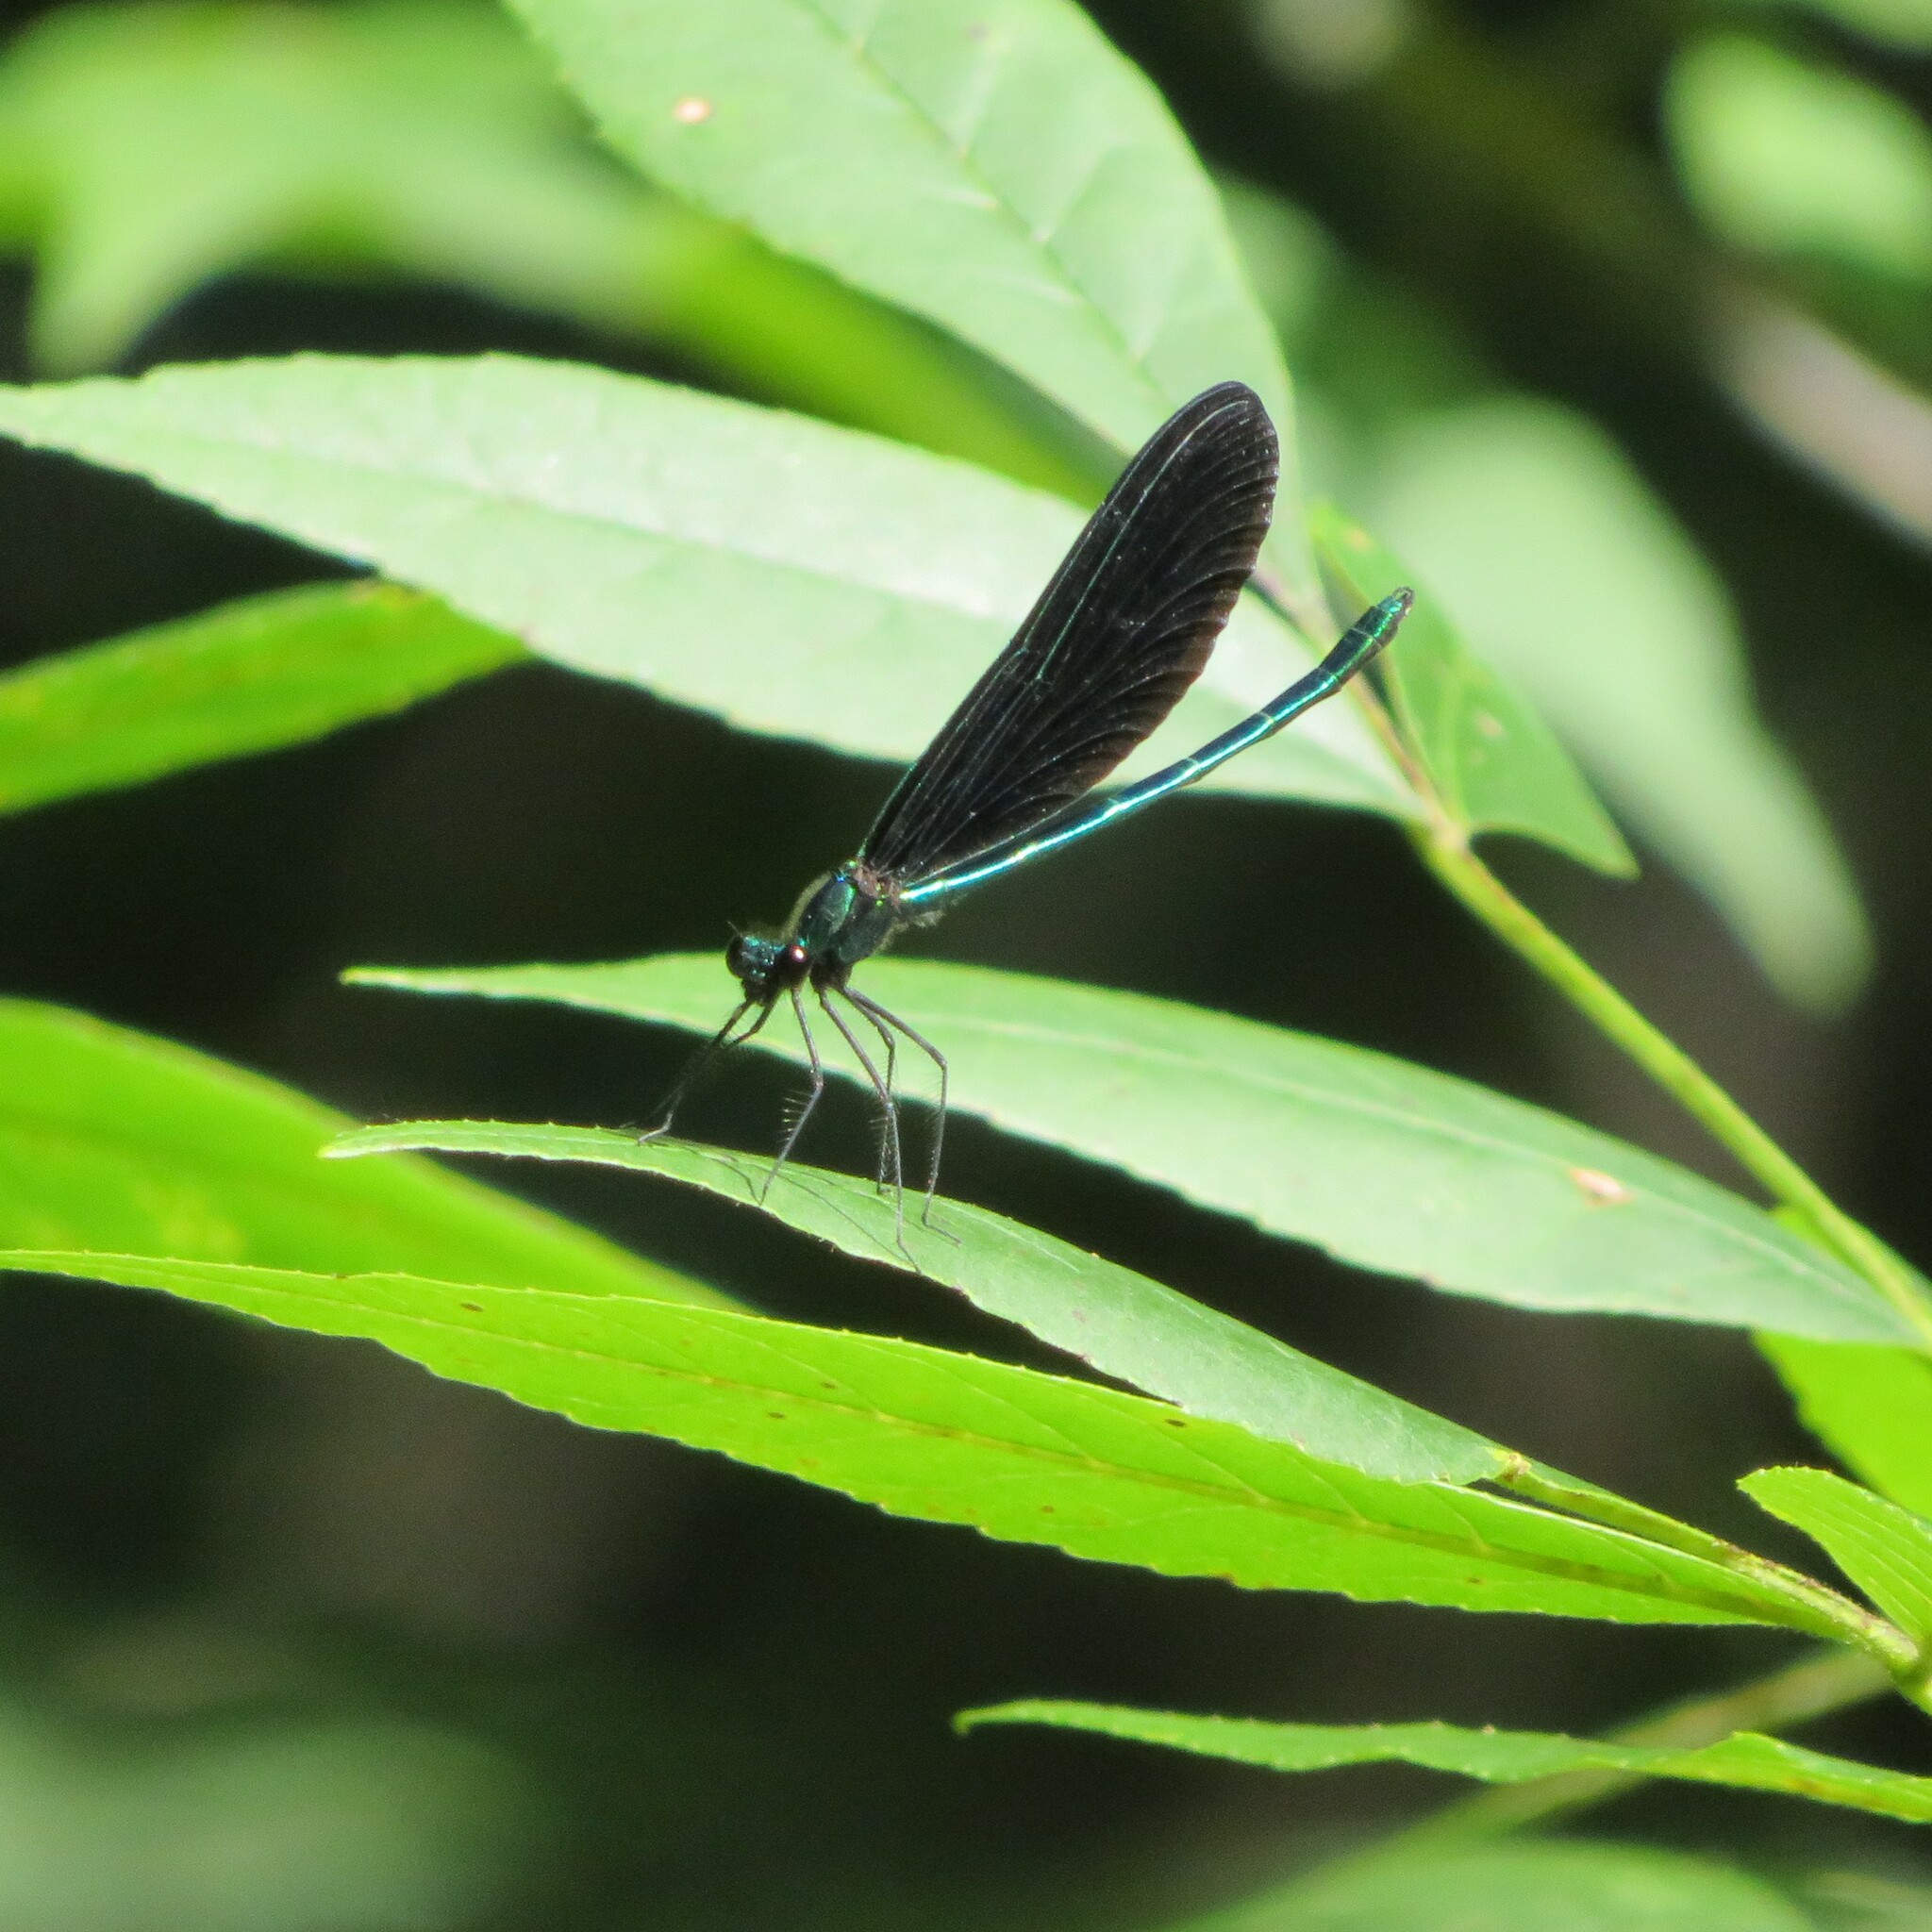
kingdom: Animalia
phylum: Arthropoda
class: Insecta
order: Odonata
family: Calopterygidae
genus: Calopteryx
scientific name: Calopteryx maculata
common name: Ebony jewelwing
